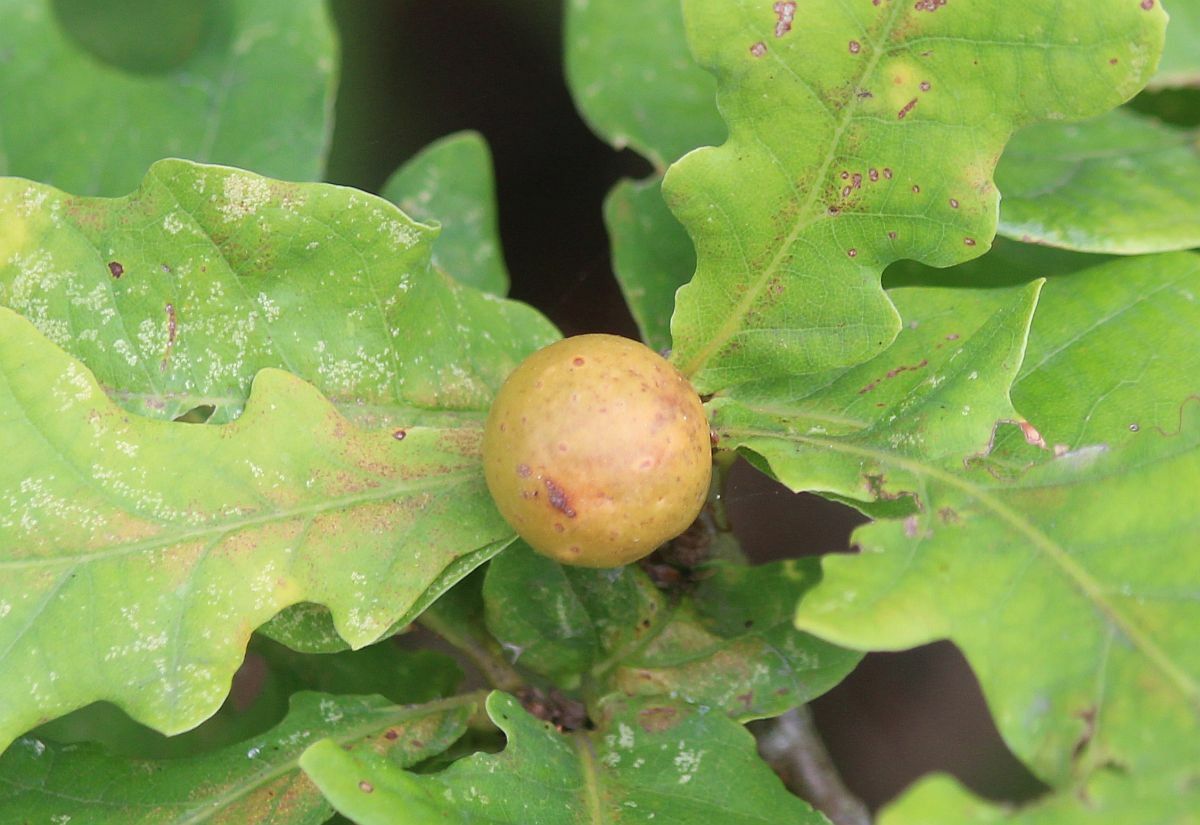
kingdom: Animalia
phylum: Arthropoda
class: Insecta
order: Hymenoptera
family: Cynipidae
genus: Andricus
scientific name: Andricus kollari
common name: Marble gall
